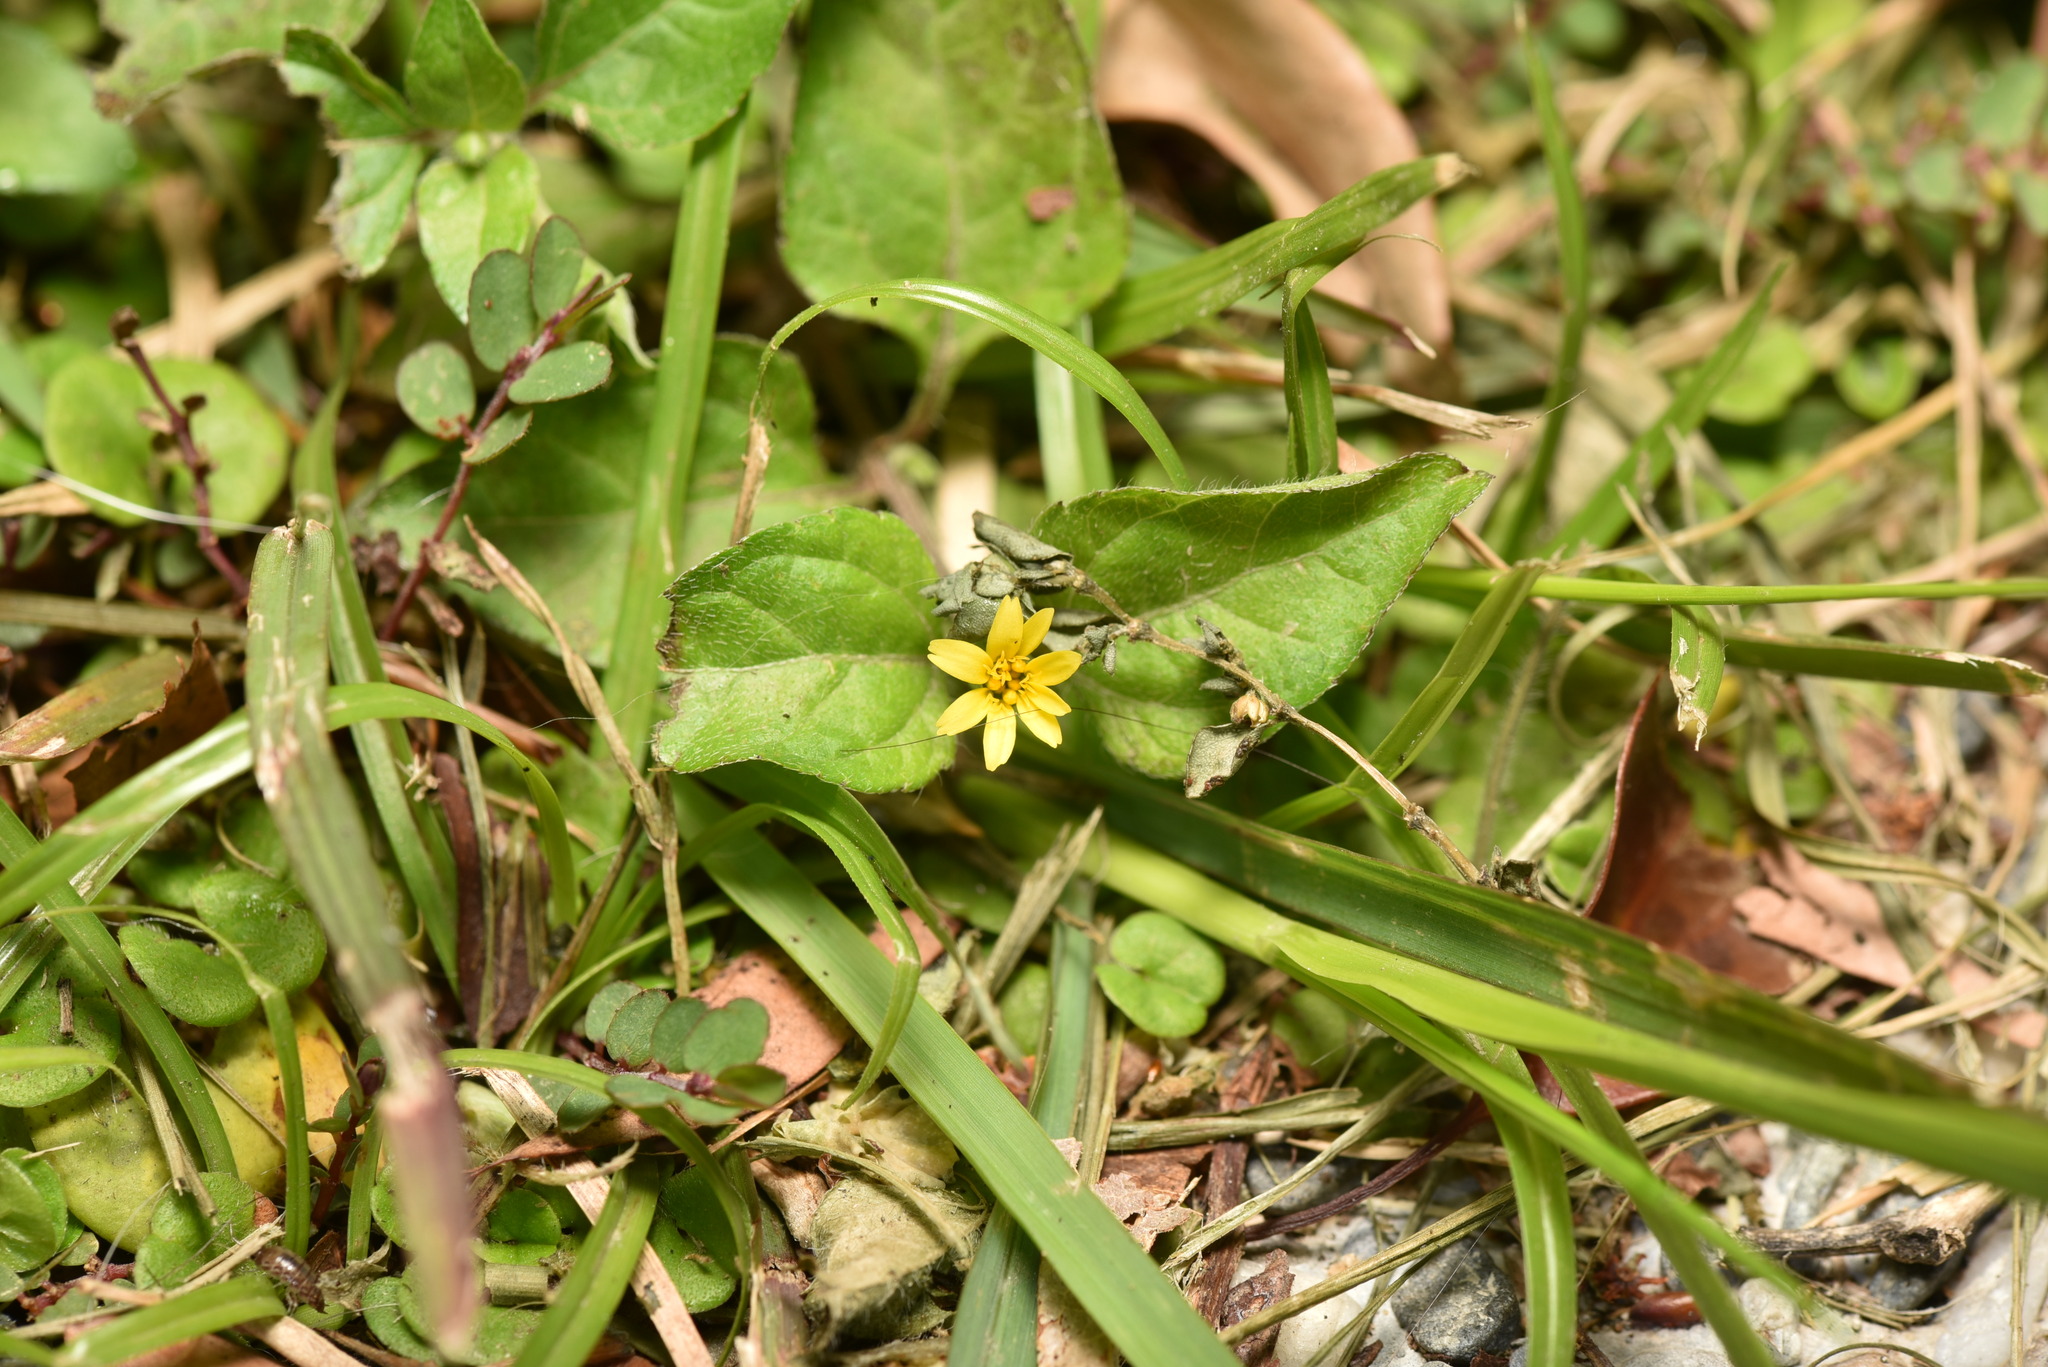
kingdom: Plantae
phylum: Tracheophyta
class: Magnoliopsida
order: Asterales
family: Asteraceae
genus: Calyptocarpus
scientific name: Calyptocarpus vialis
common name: Straggler daisy
